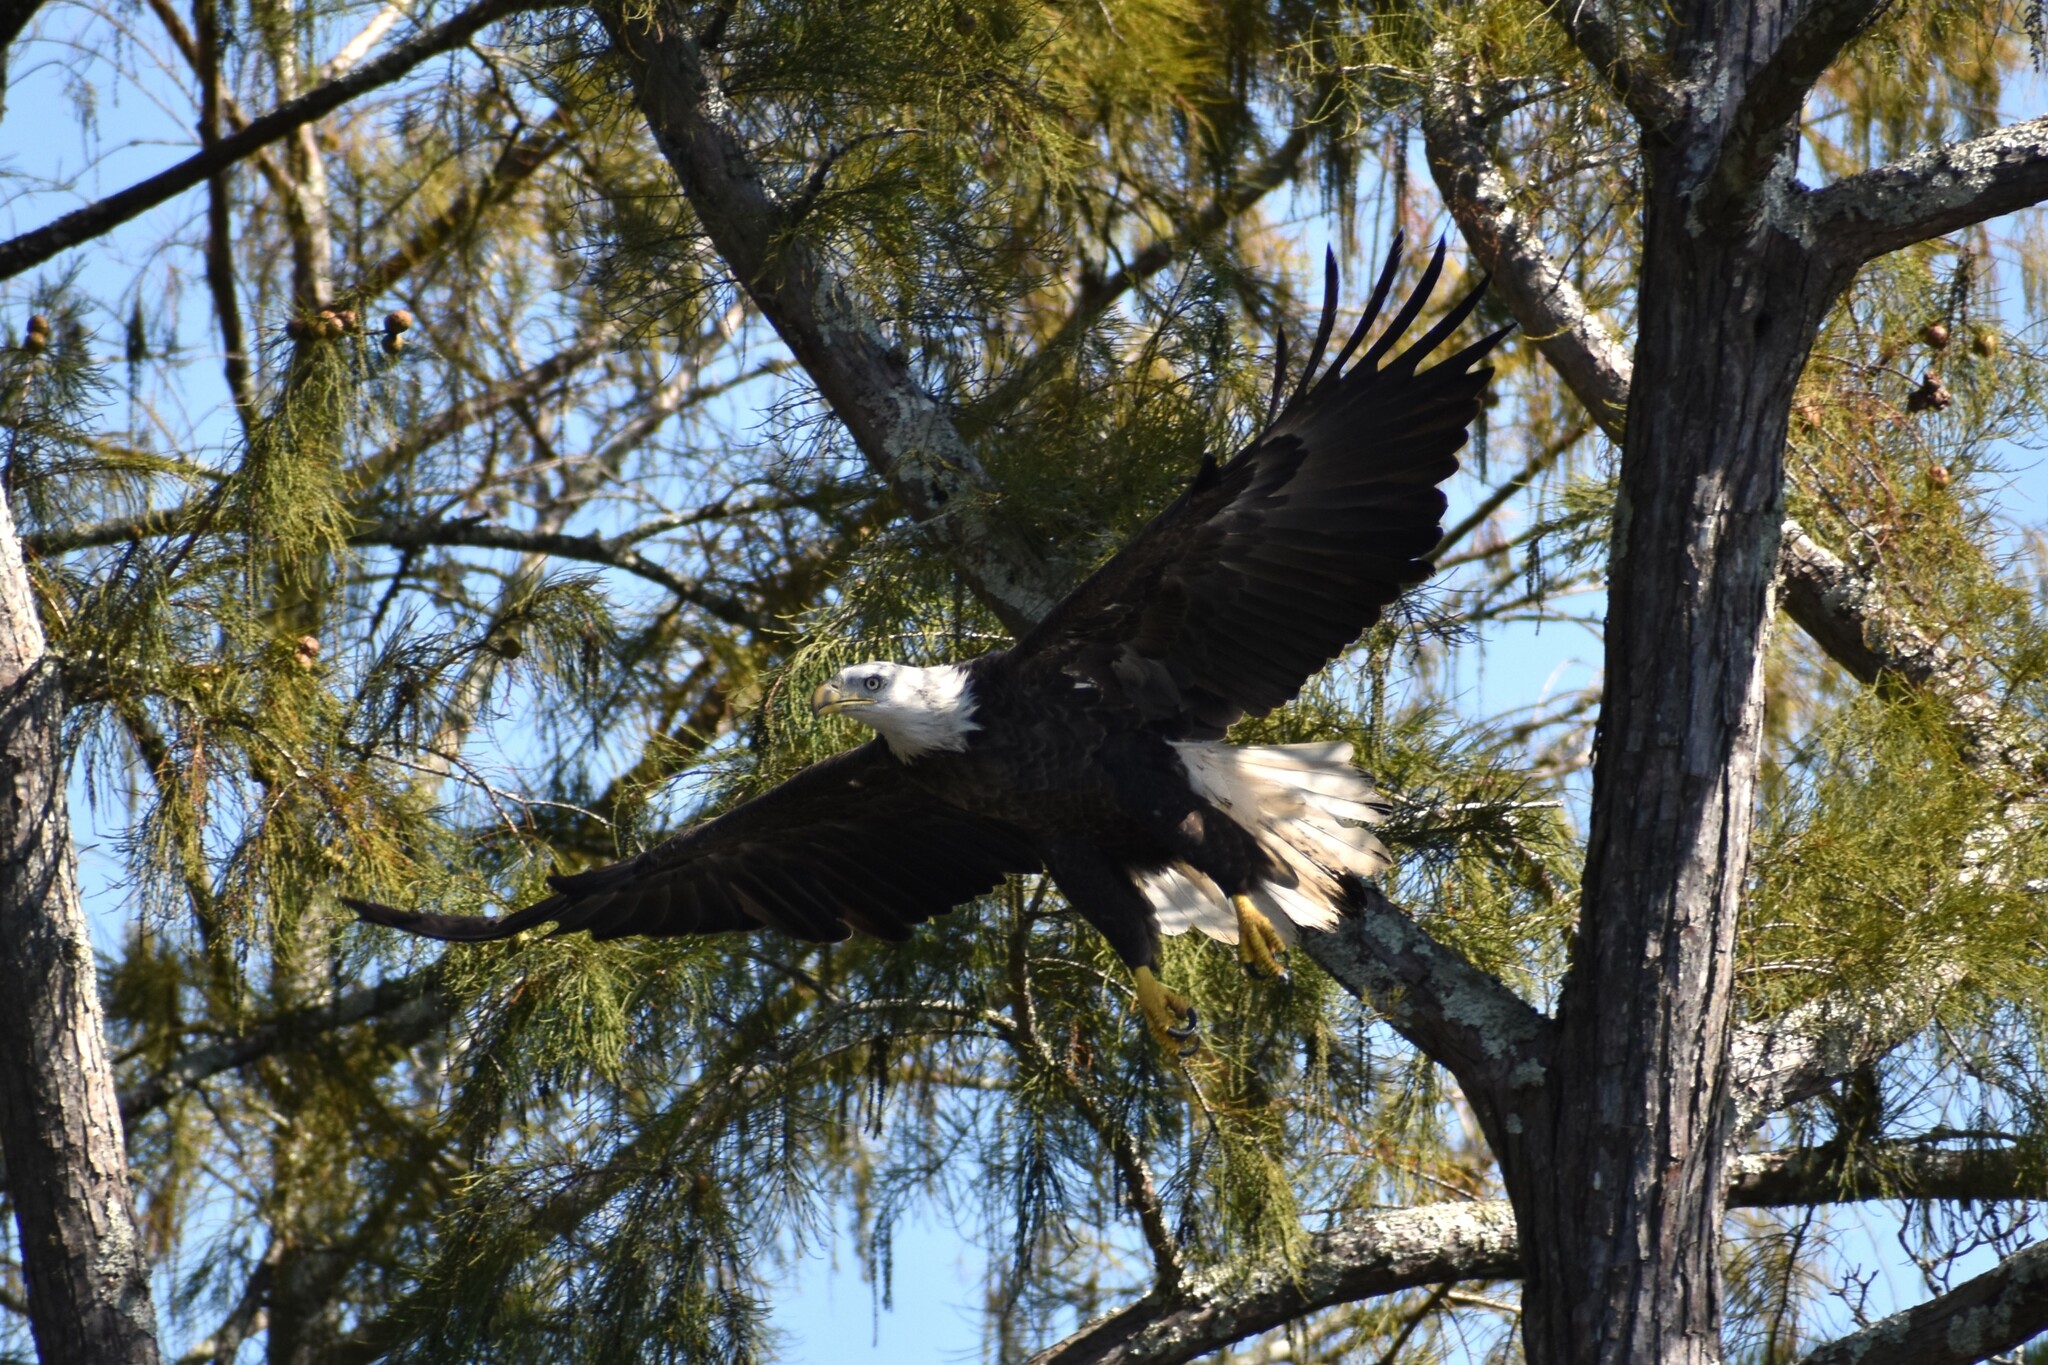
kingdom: Animalia
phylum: Chordata
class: Aves
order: Accipitriformes
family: Accipitridae
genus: Haliaeetus
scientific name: Haliaeetus leucocephalus
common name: Bald eagle
